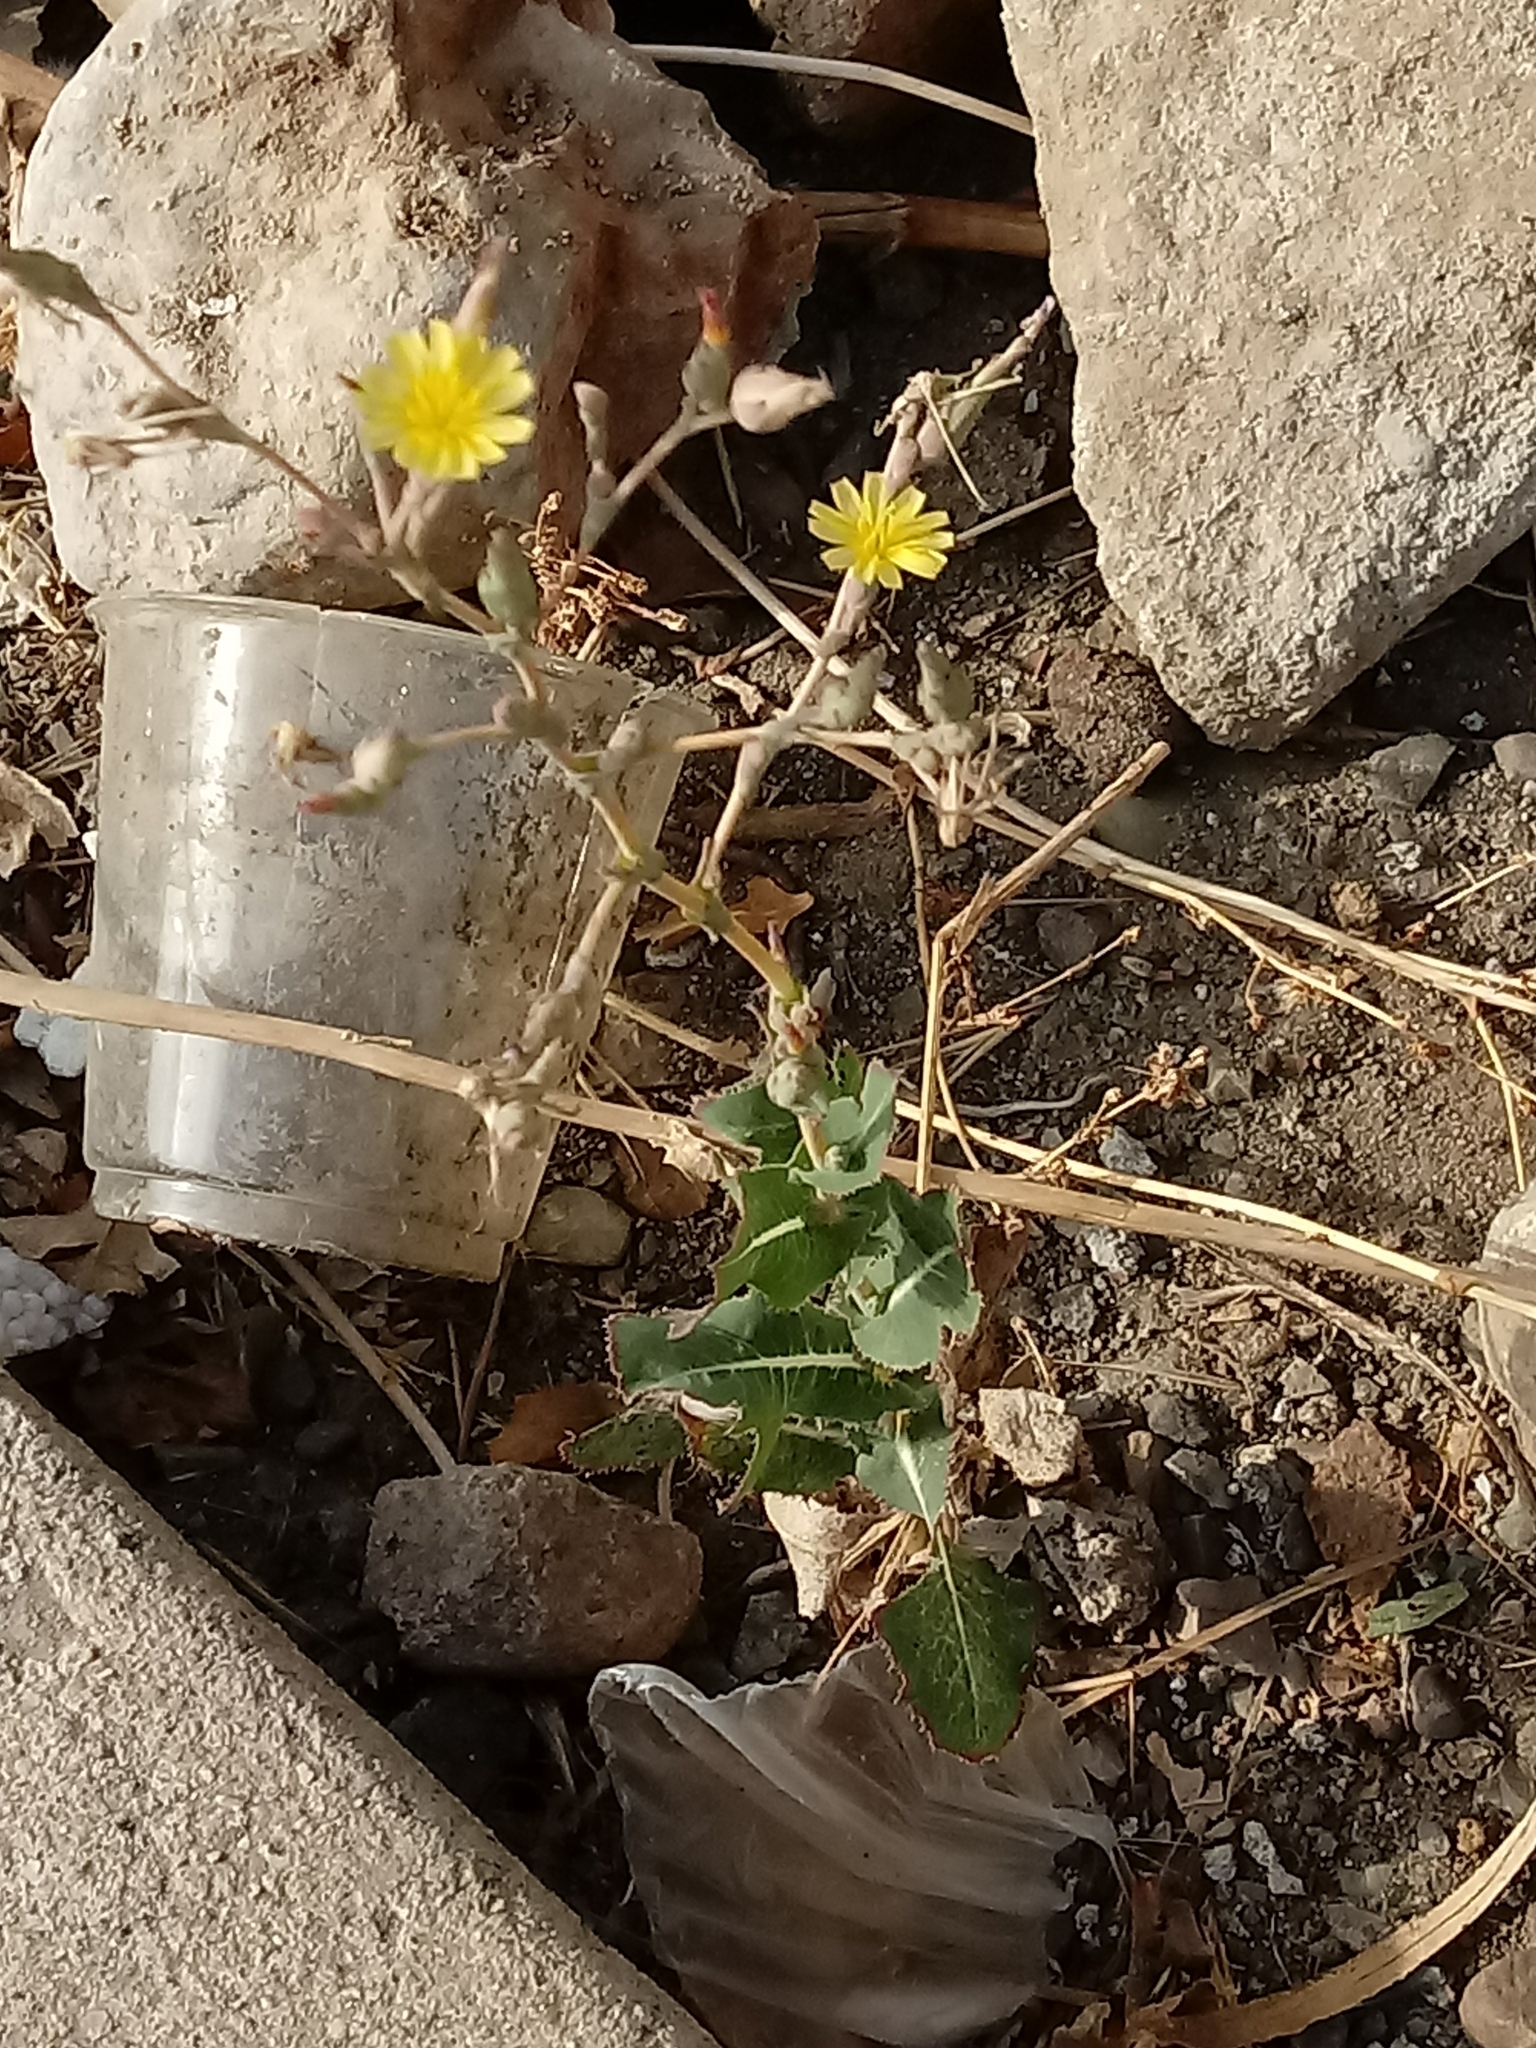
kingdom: Plantae
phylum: Tracheophyta
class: Magnoliopsida
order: Asterales
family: Asteraceae
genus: Lactuca
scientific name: Lactuca serriola
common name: Prickly lettuce
